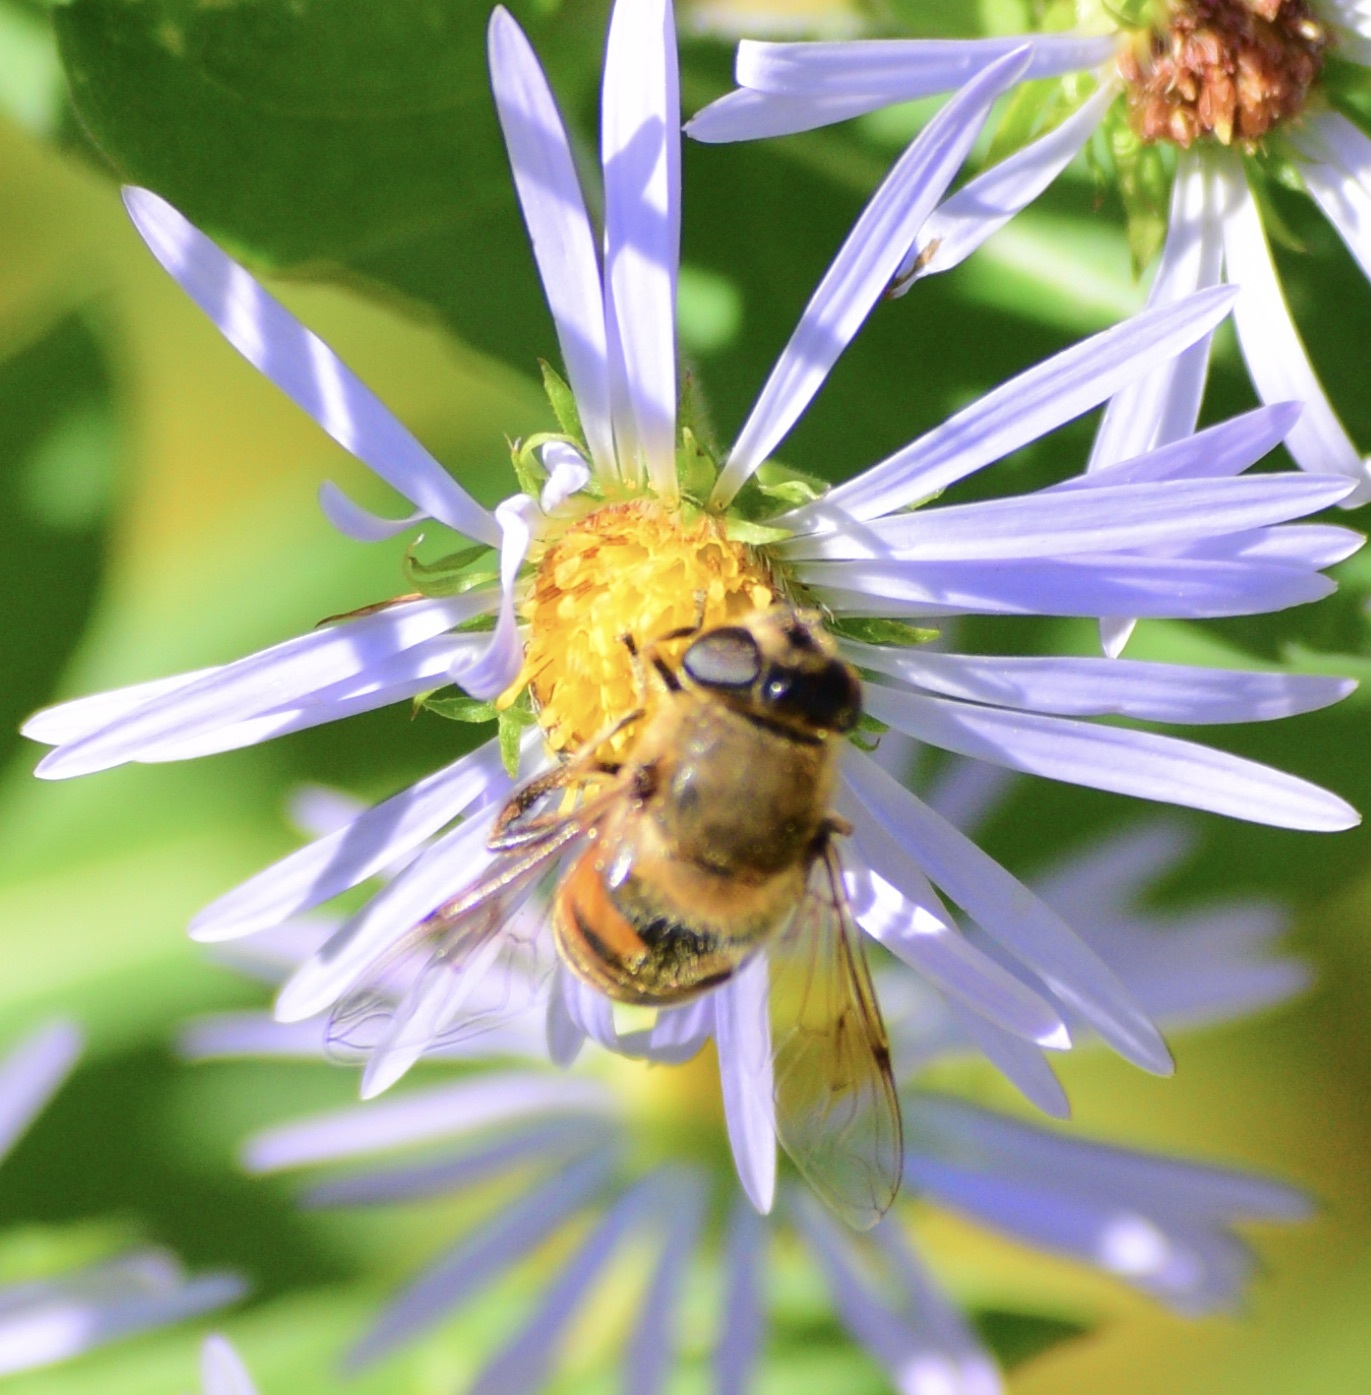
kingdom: Animalia
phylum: Arthropoda
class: Insecta
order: Diptera
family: Syrphidae
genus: Eristalis
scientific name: Eristalis tenax
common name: Drone fly
